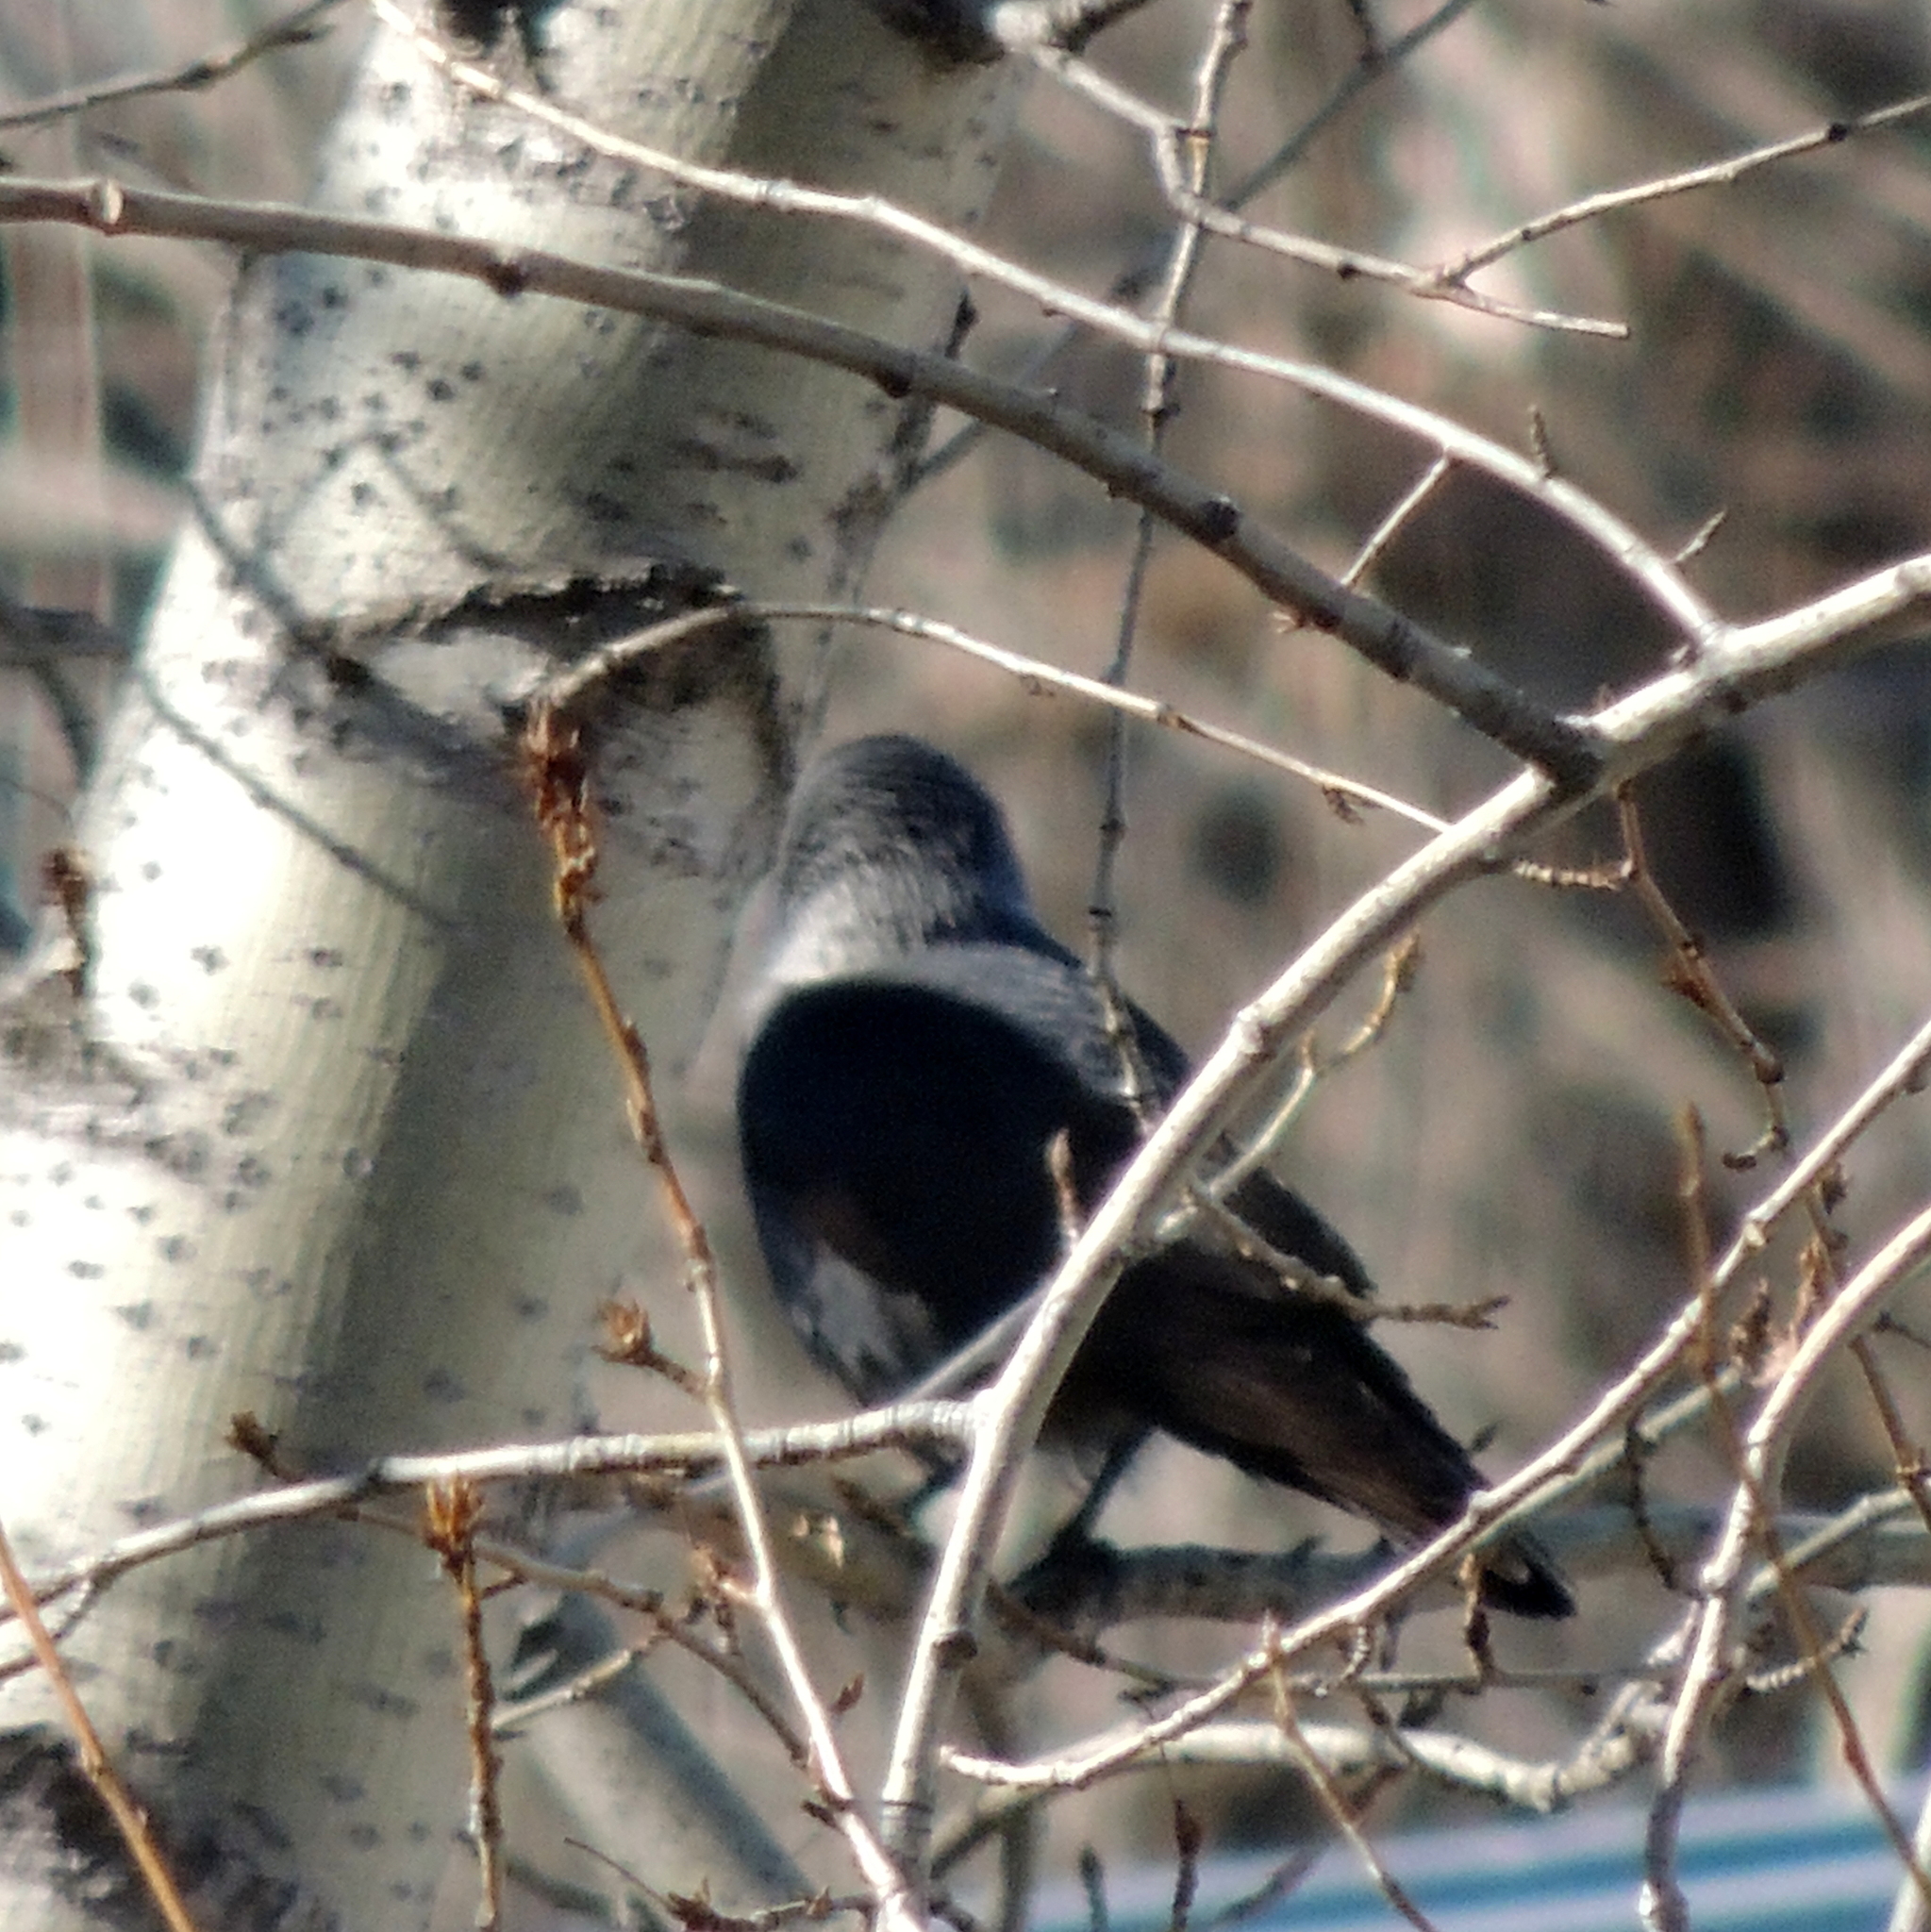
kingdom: Animalia
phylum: Chordata
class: Aves
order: Passeriformes
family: Corvidae
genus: Coloeus
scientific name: Coloeus monedula
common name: Western jackdaw
